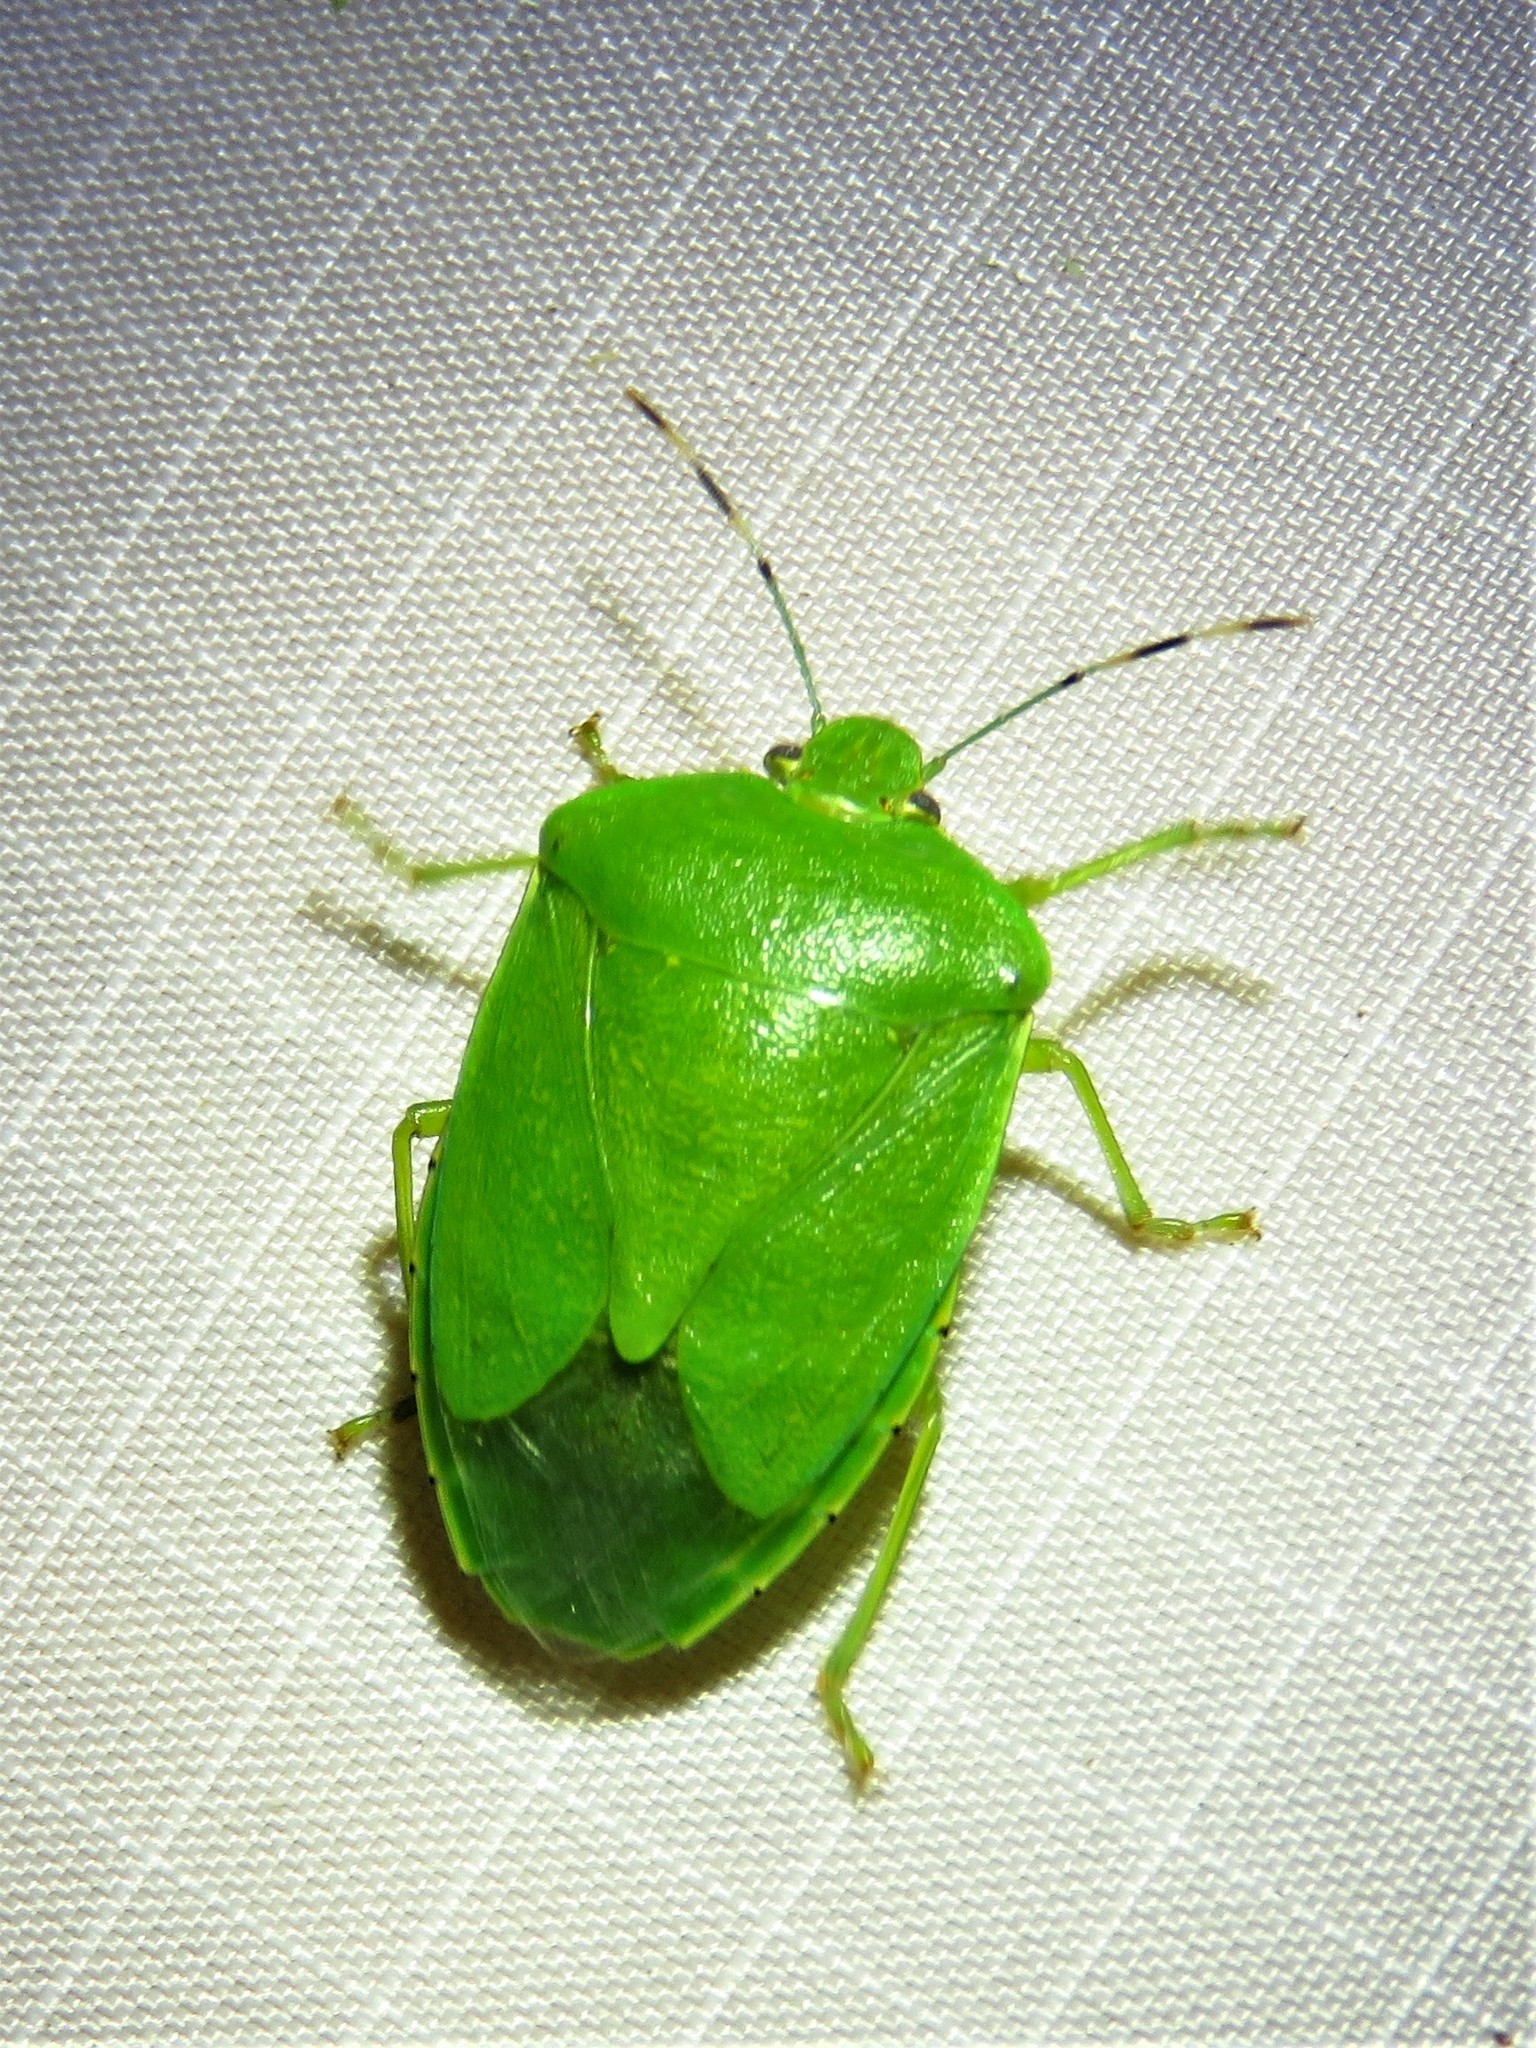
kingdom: Animalia
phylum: Arthropoda
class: Insecta
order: Hemiptera
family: Pentatomidae
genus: Chinavia
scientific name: Chinavia hilaris
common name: Green stink bug
